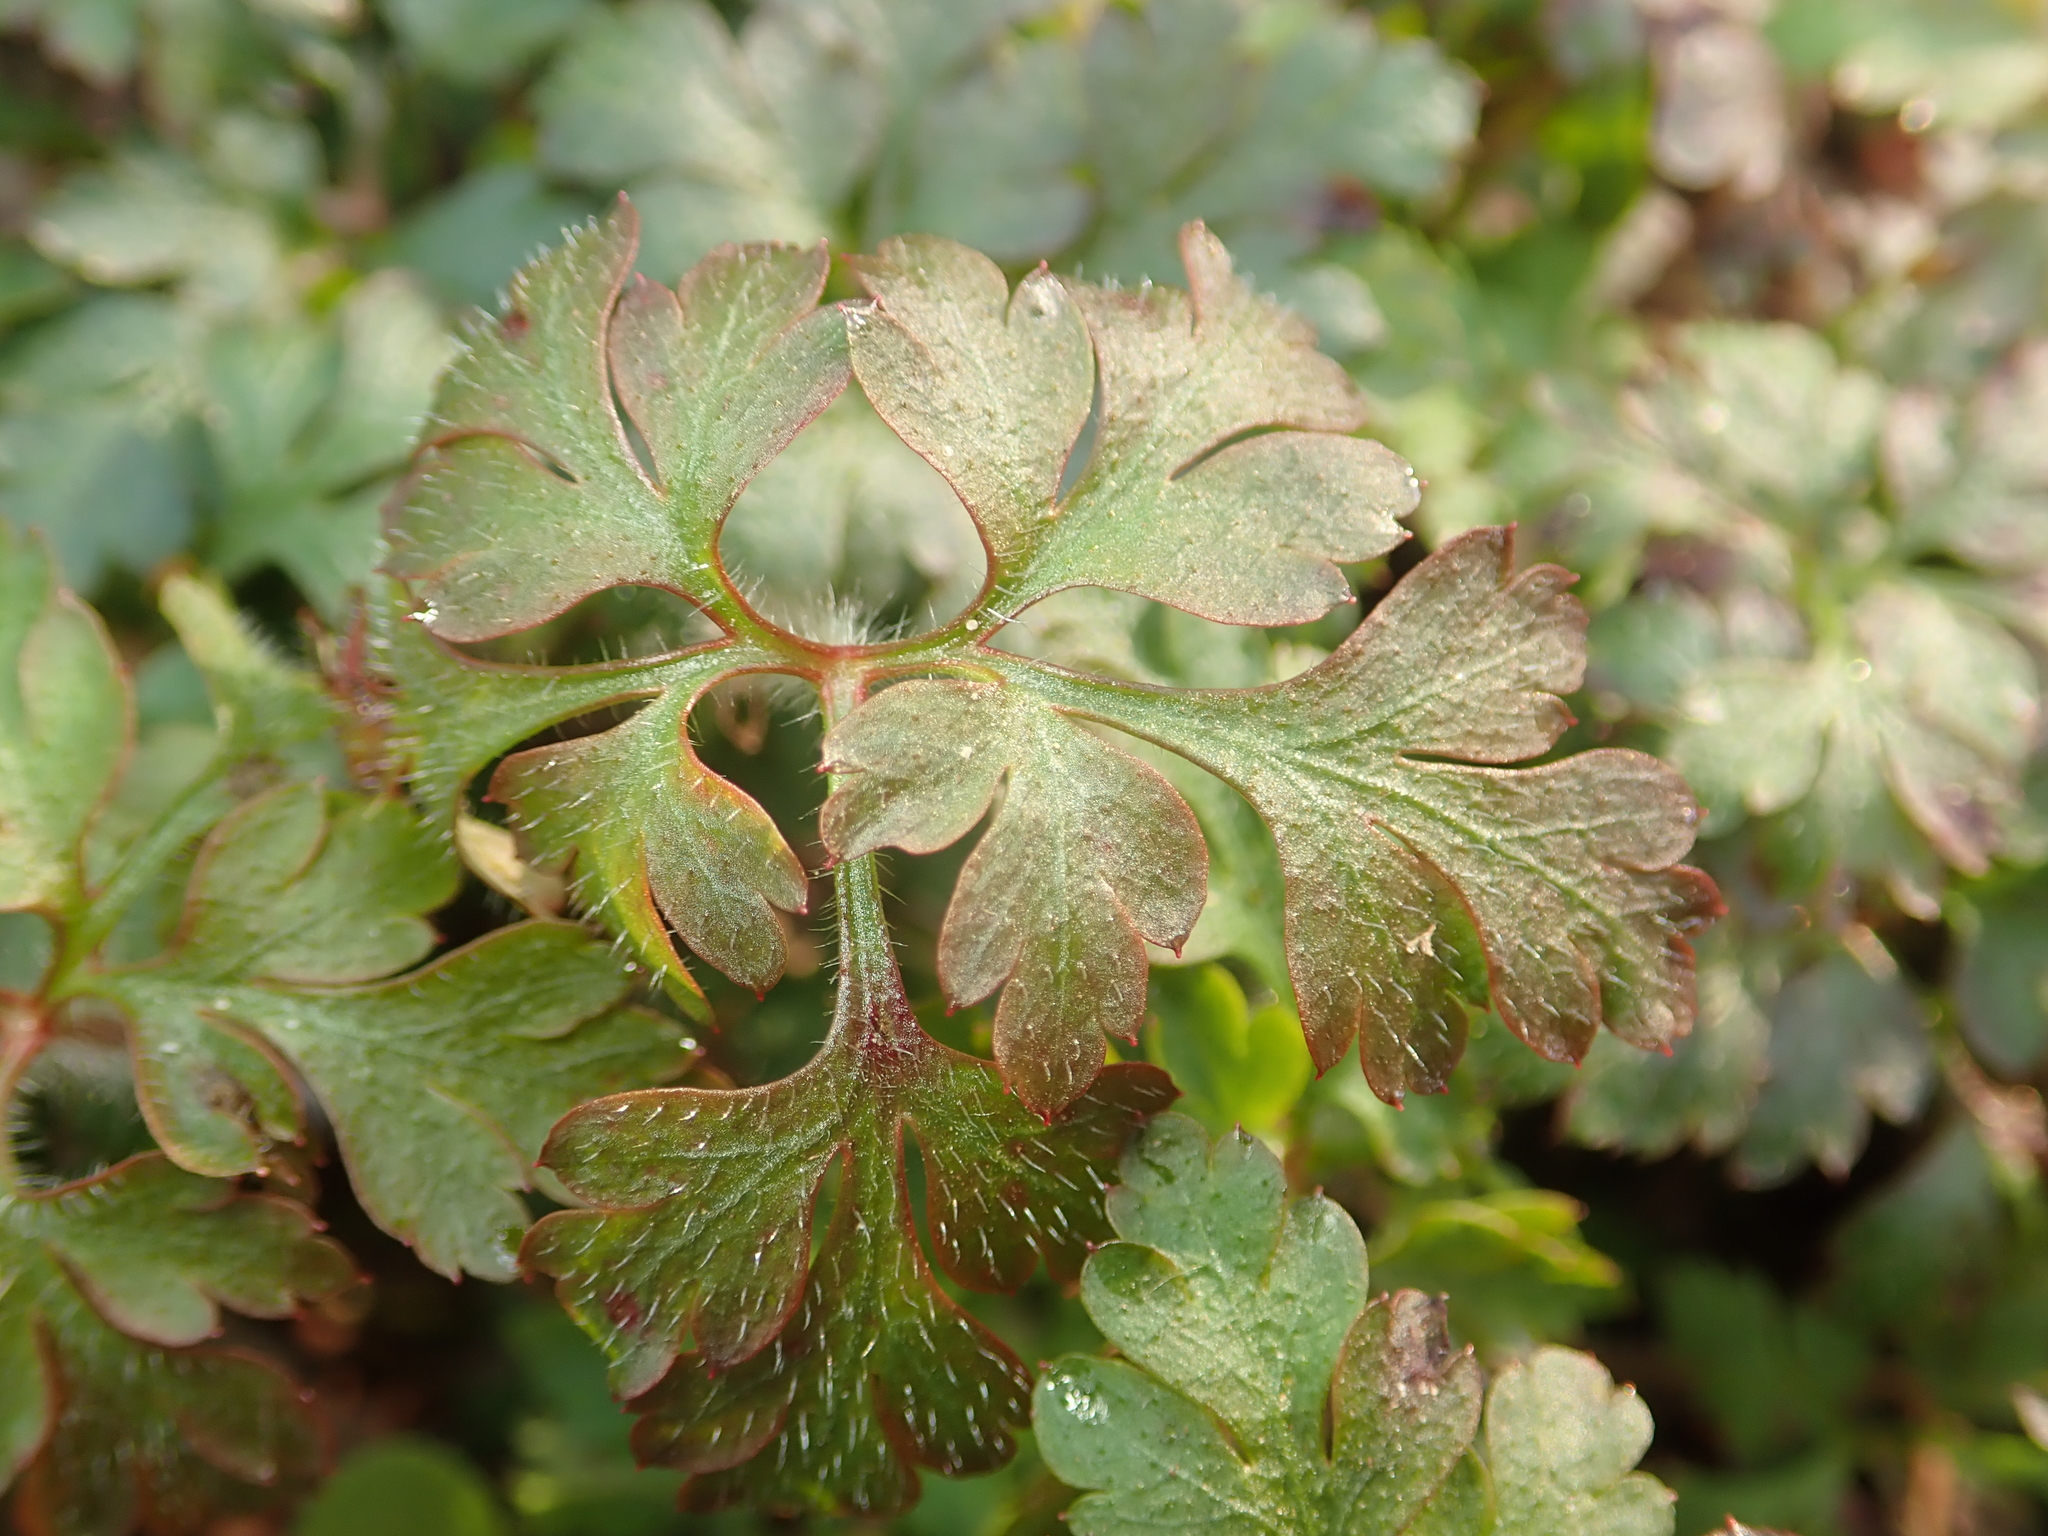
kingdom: Plantae
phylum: Tracheophyta
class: Magnoliopsida
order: Geraniales
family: Geraniaceae
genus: Geranium
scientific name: Geranium robertianum
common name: Herb-robert
